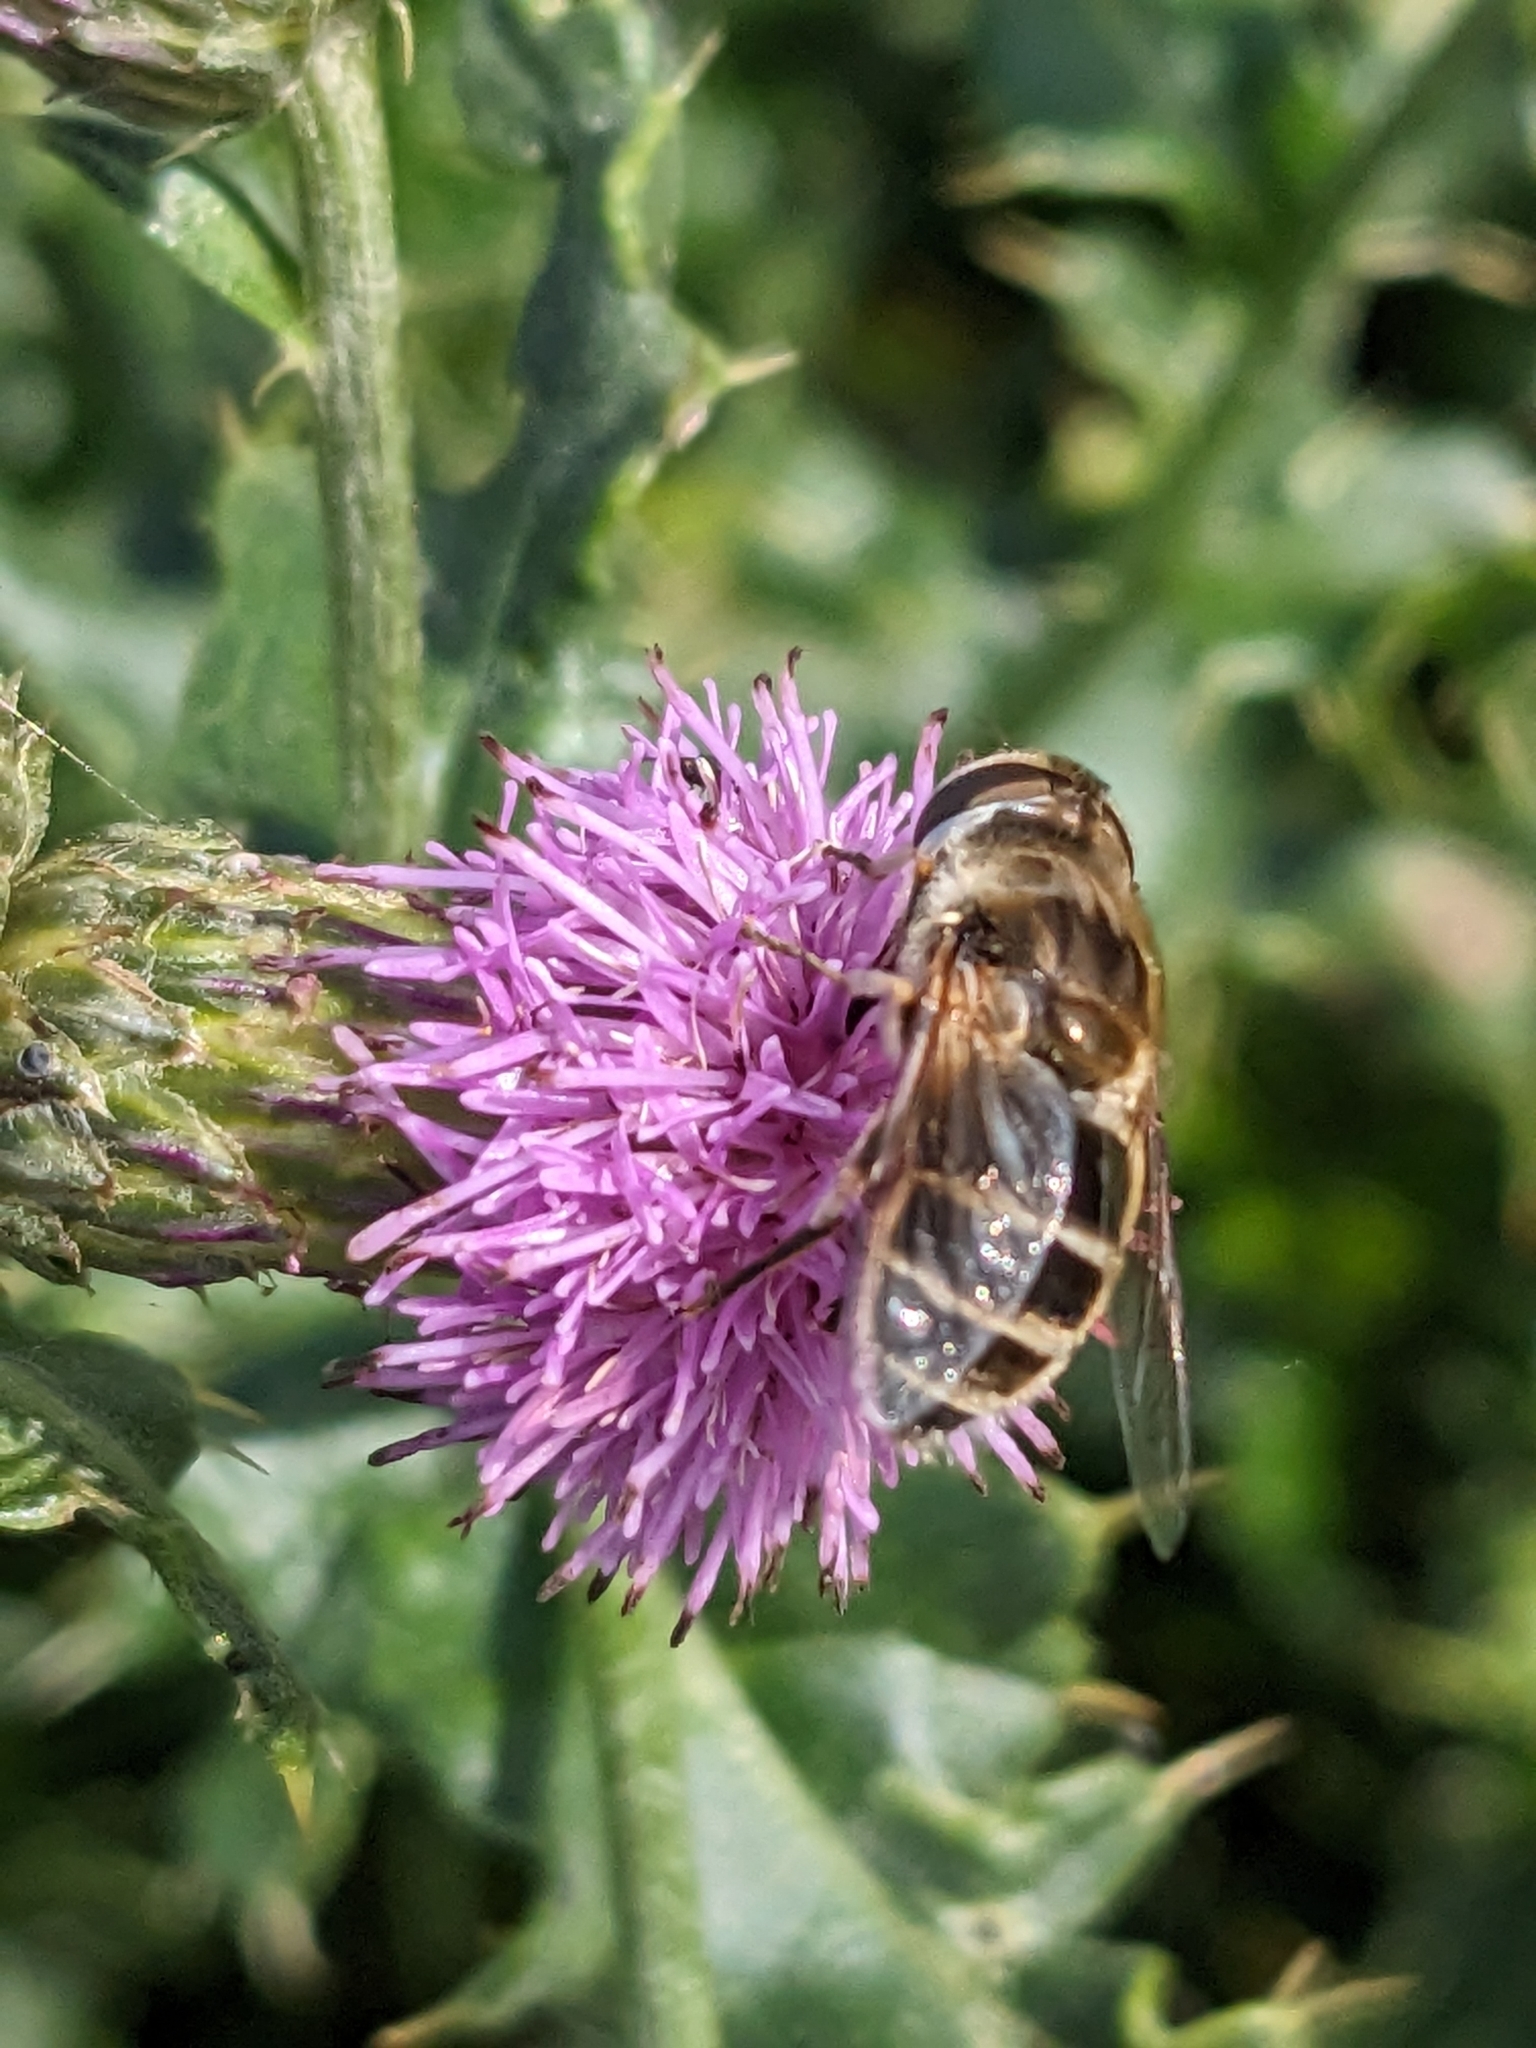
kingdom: Animalia
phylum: Arthropoda
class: Insecta
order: Diptera
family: Syrphidae
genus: Eristalis
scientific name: Eristalis arbustorum
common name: Hover fly
